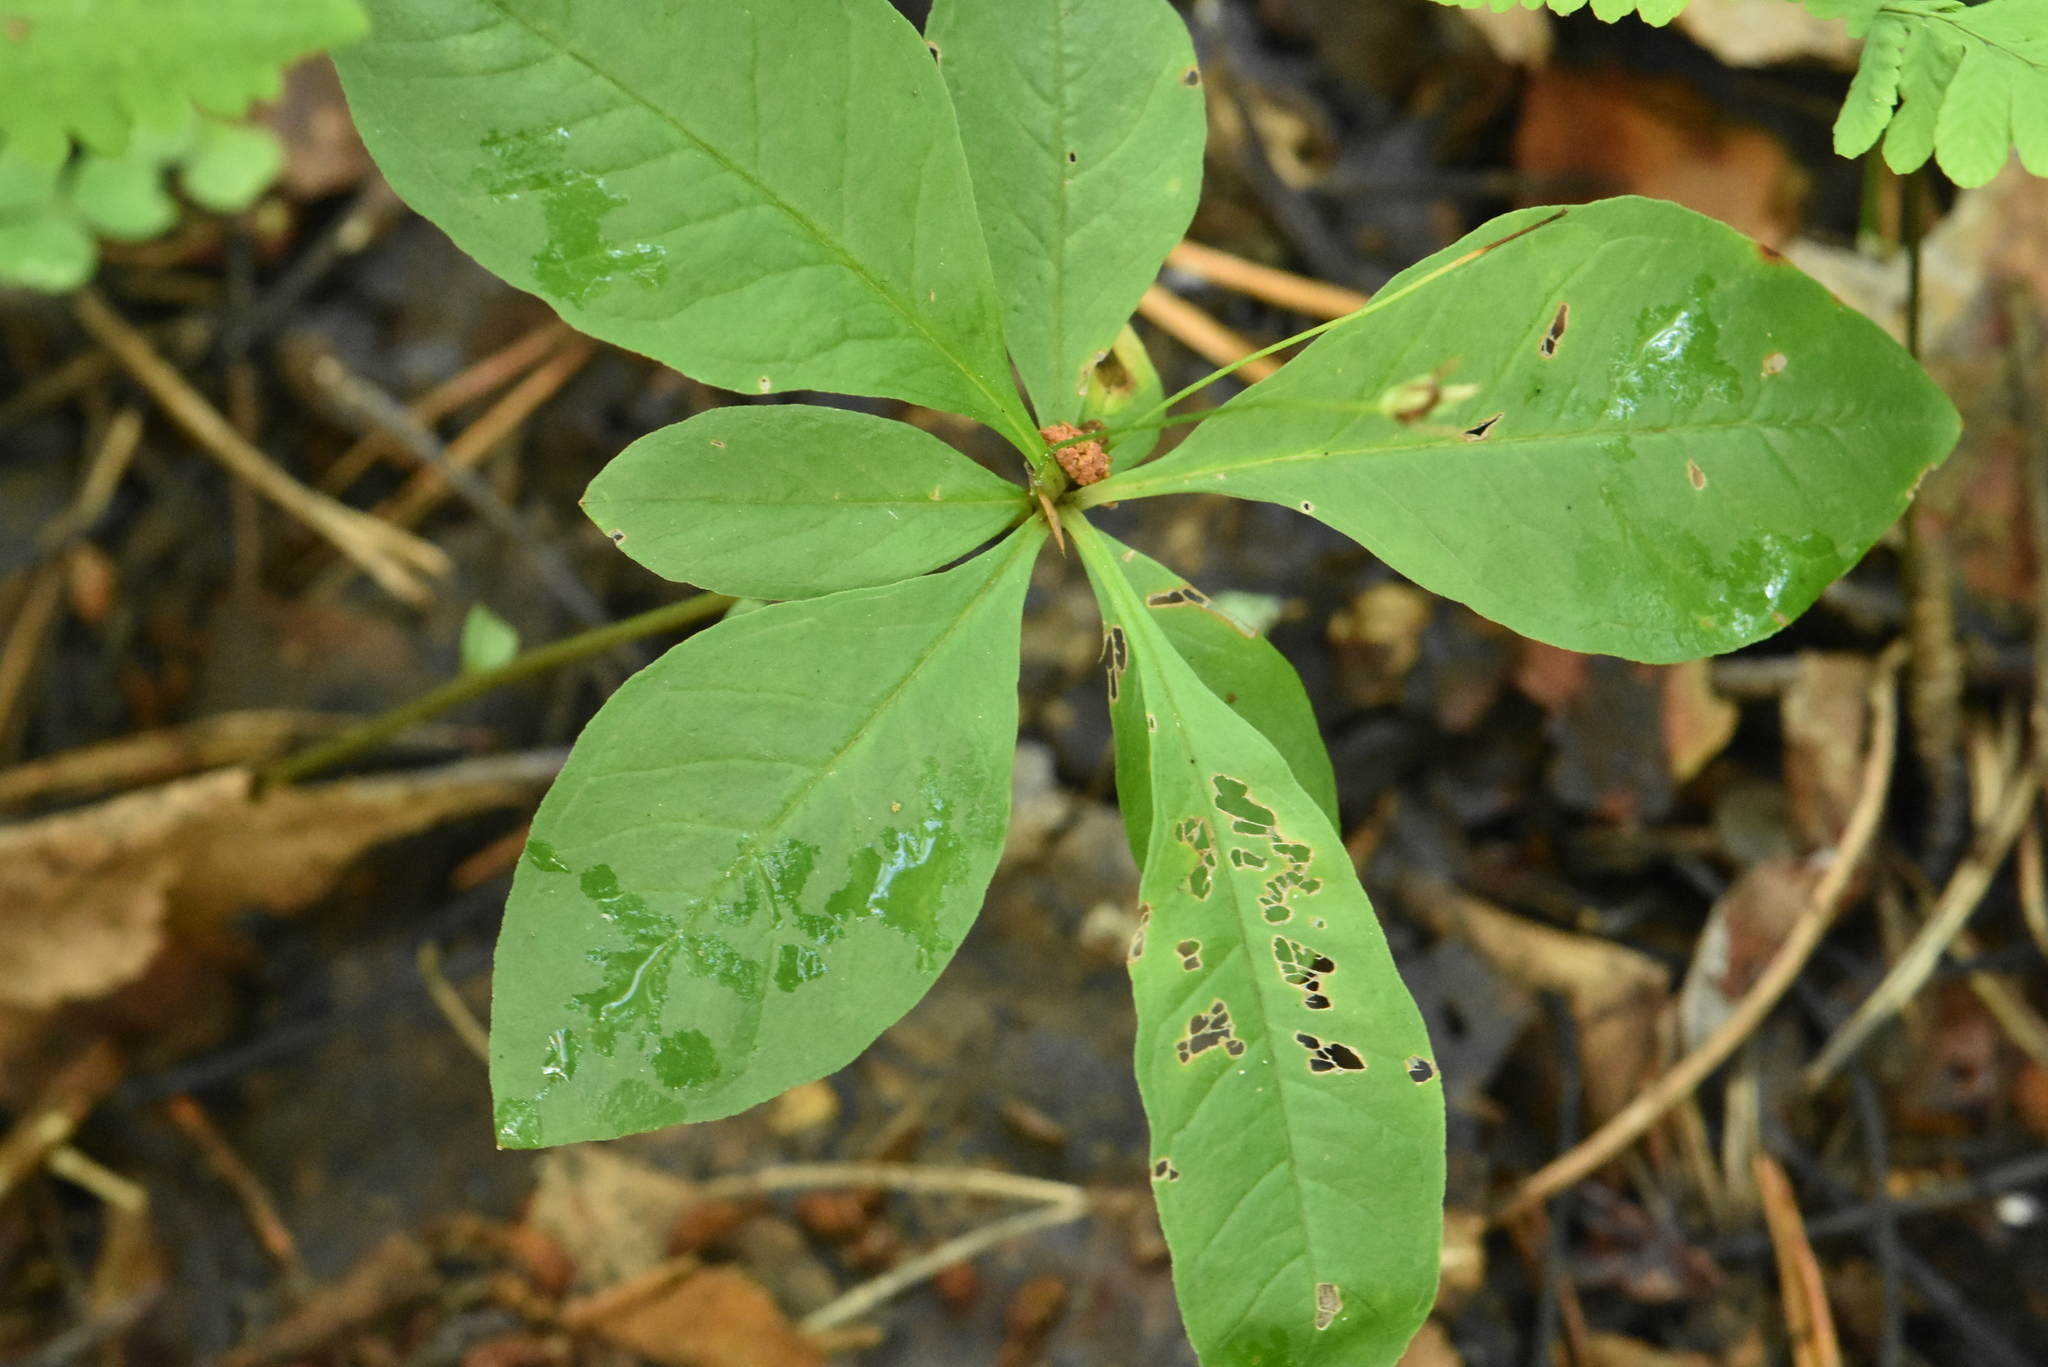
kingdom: Plantae
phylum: Tracheophyta
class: Magnoliopsida
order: Ericales
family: Primulaceae
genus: Lysimachia
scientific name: Lysimachia europaea
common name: Arctic starflower
